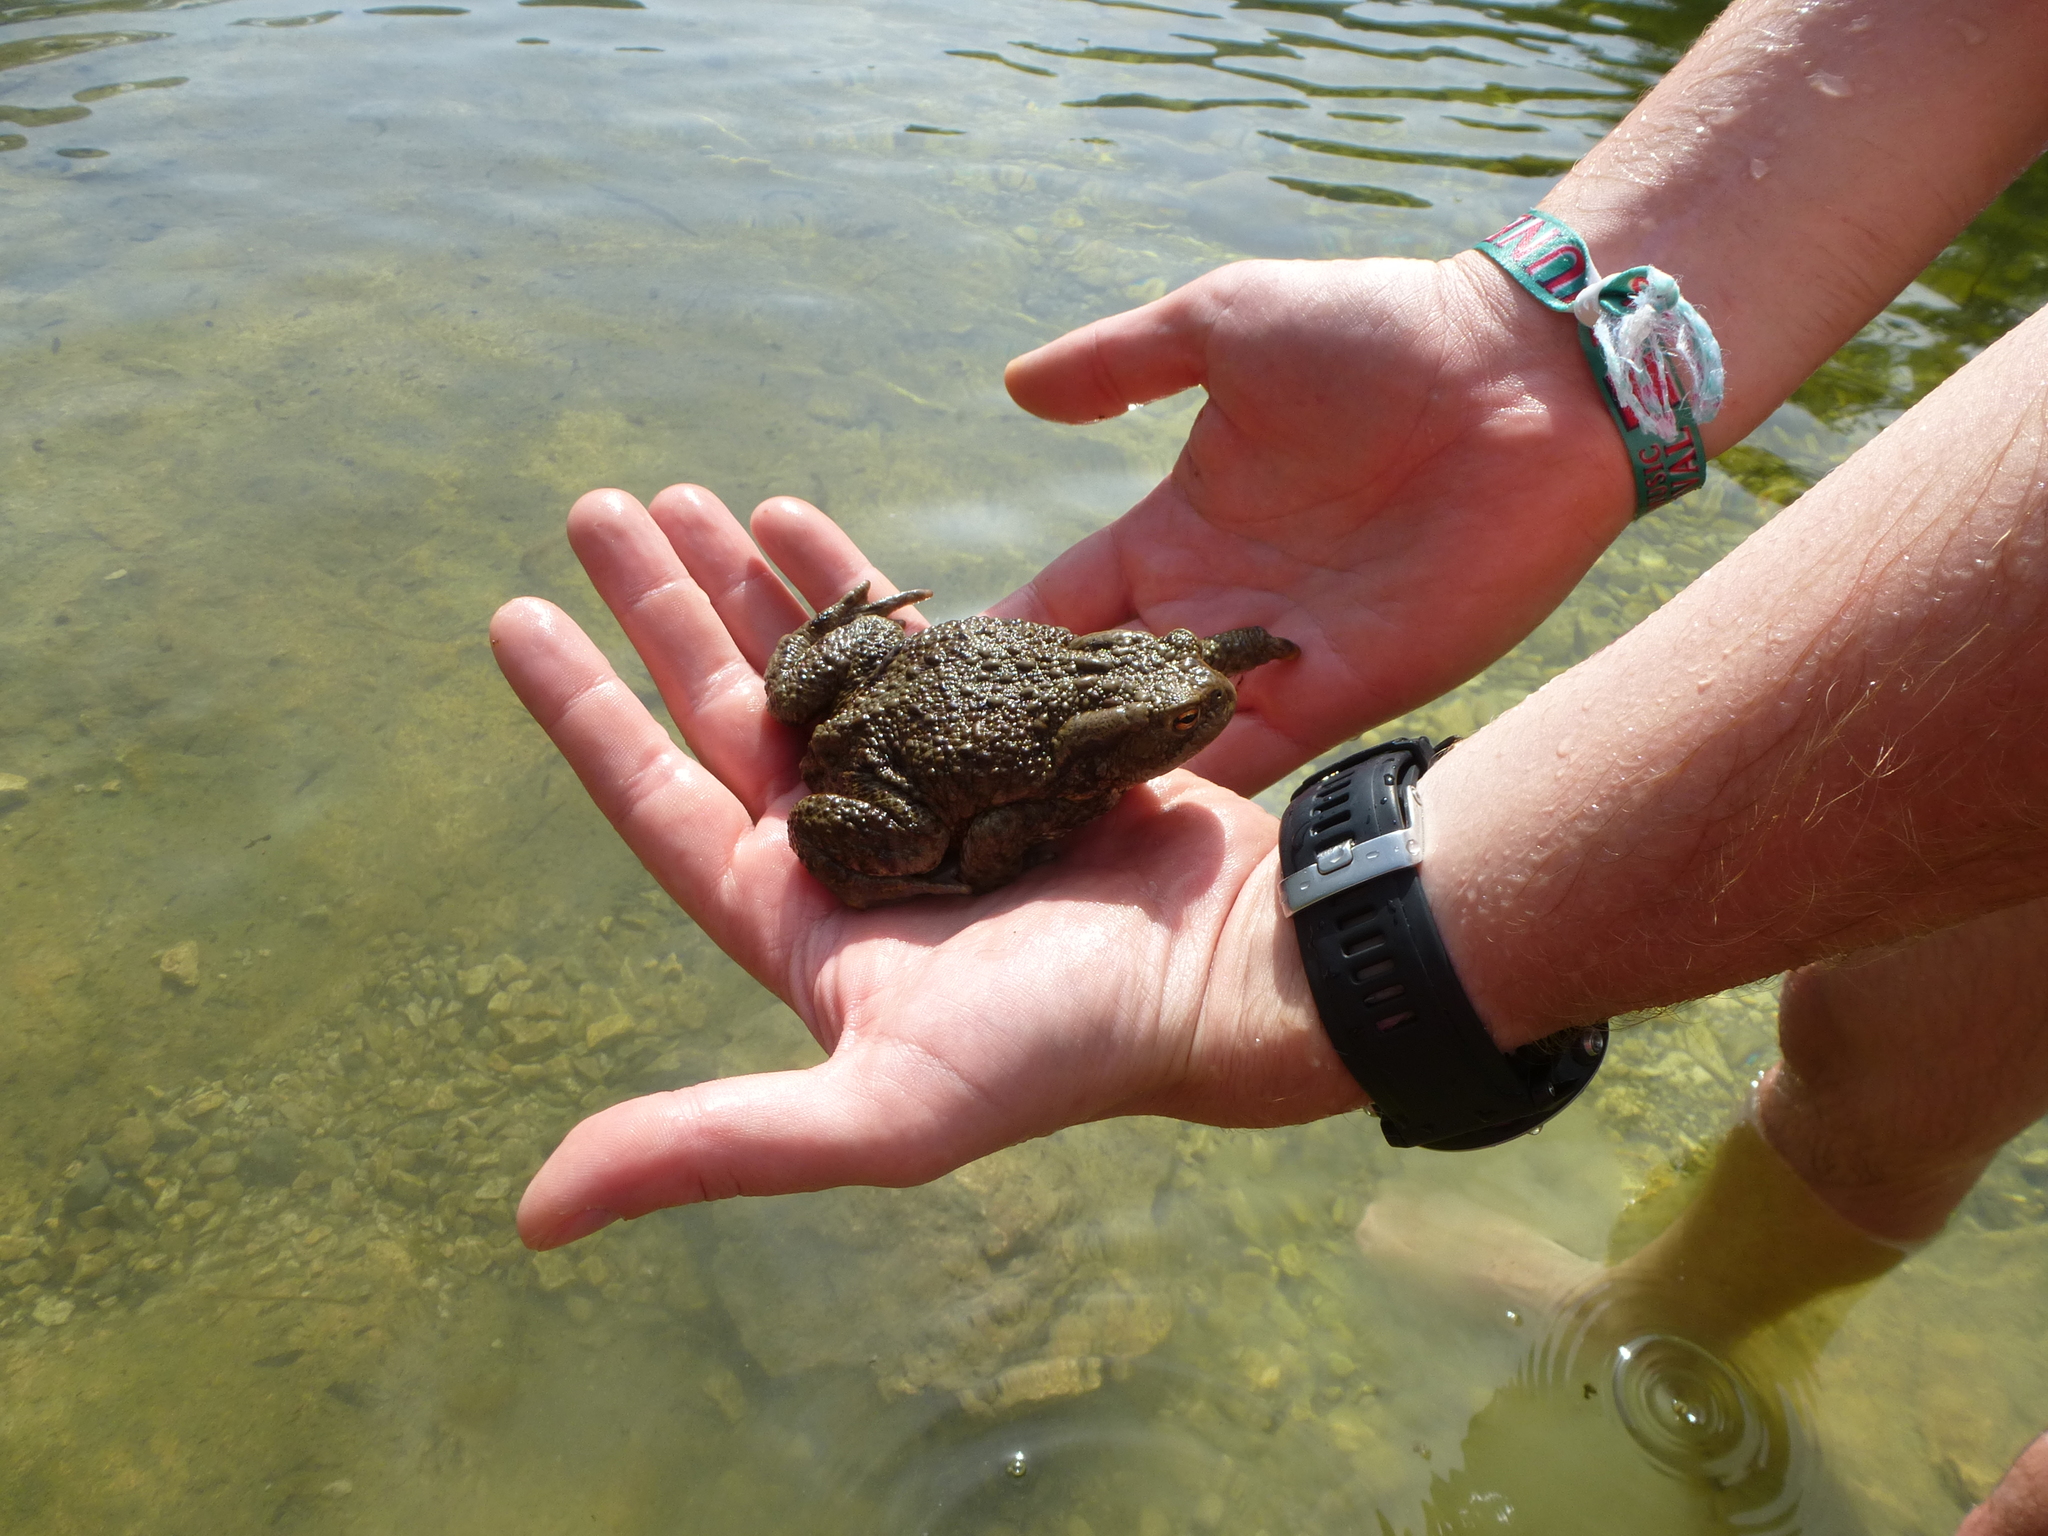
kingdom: Animalia
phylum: Chordata
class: Amphibia
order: Anura
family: Bufonidae
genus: Bufo
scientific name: Bufo bufo
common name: Common toad
